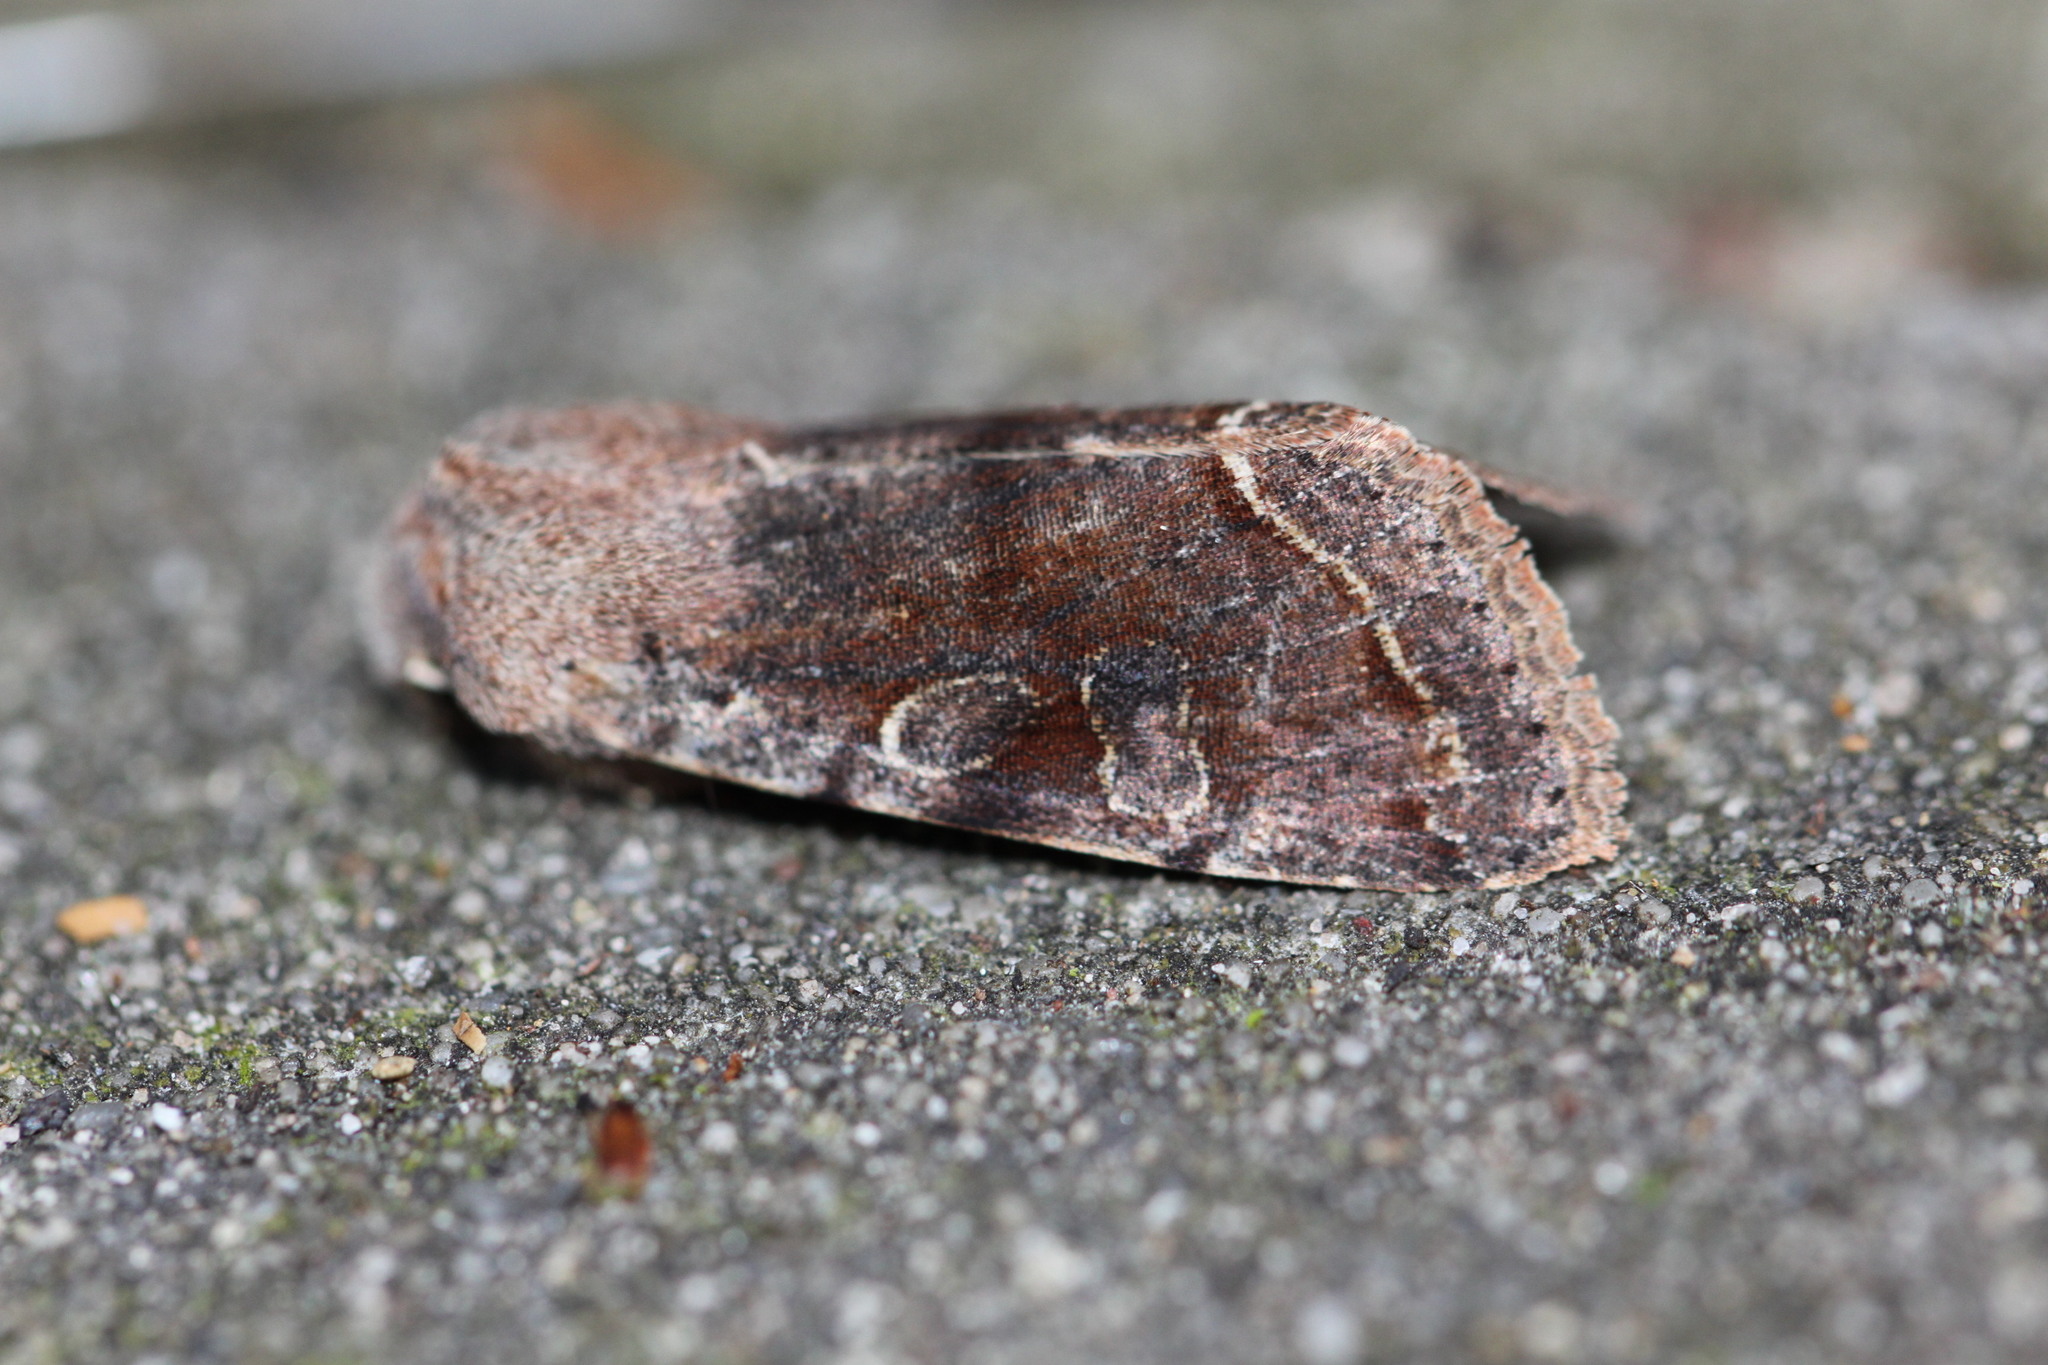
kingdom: Animalia
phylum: Arthropoda
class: Insecta
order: Lepidoptera
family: Noctuidae
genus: Orthosia
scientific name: Orthosia incerta
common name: Clouded drab
